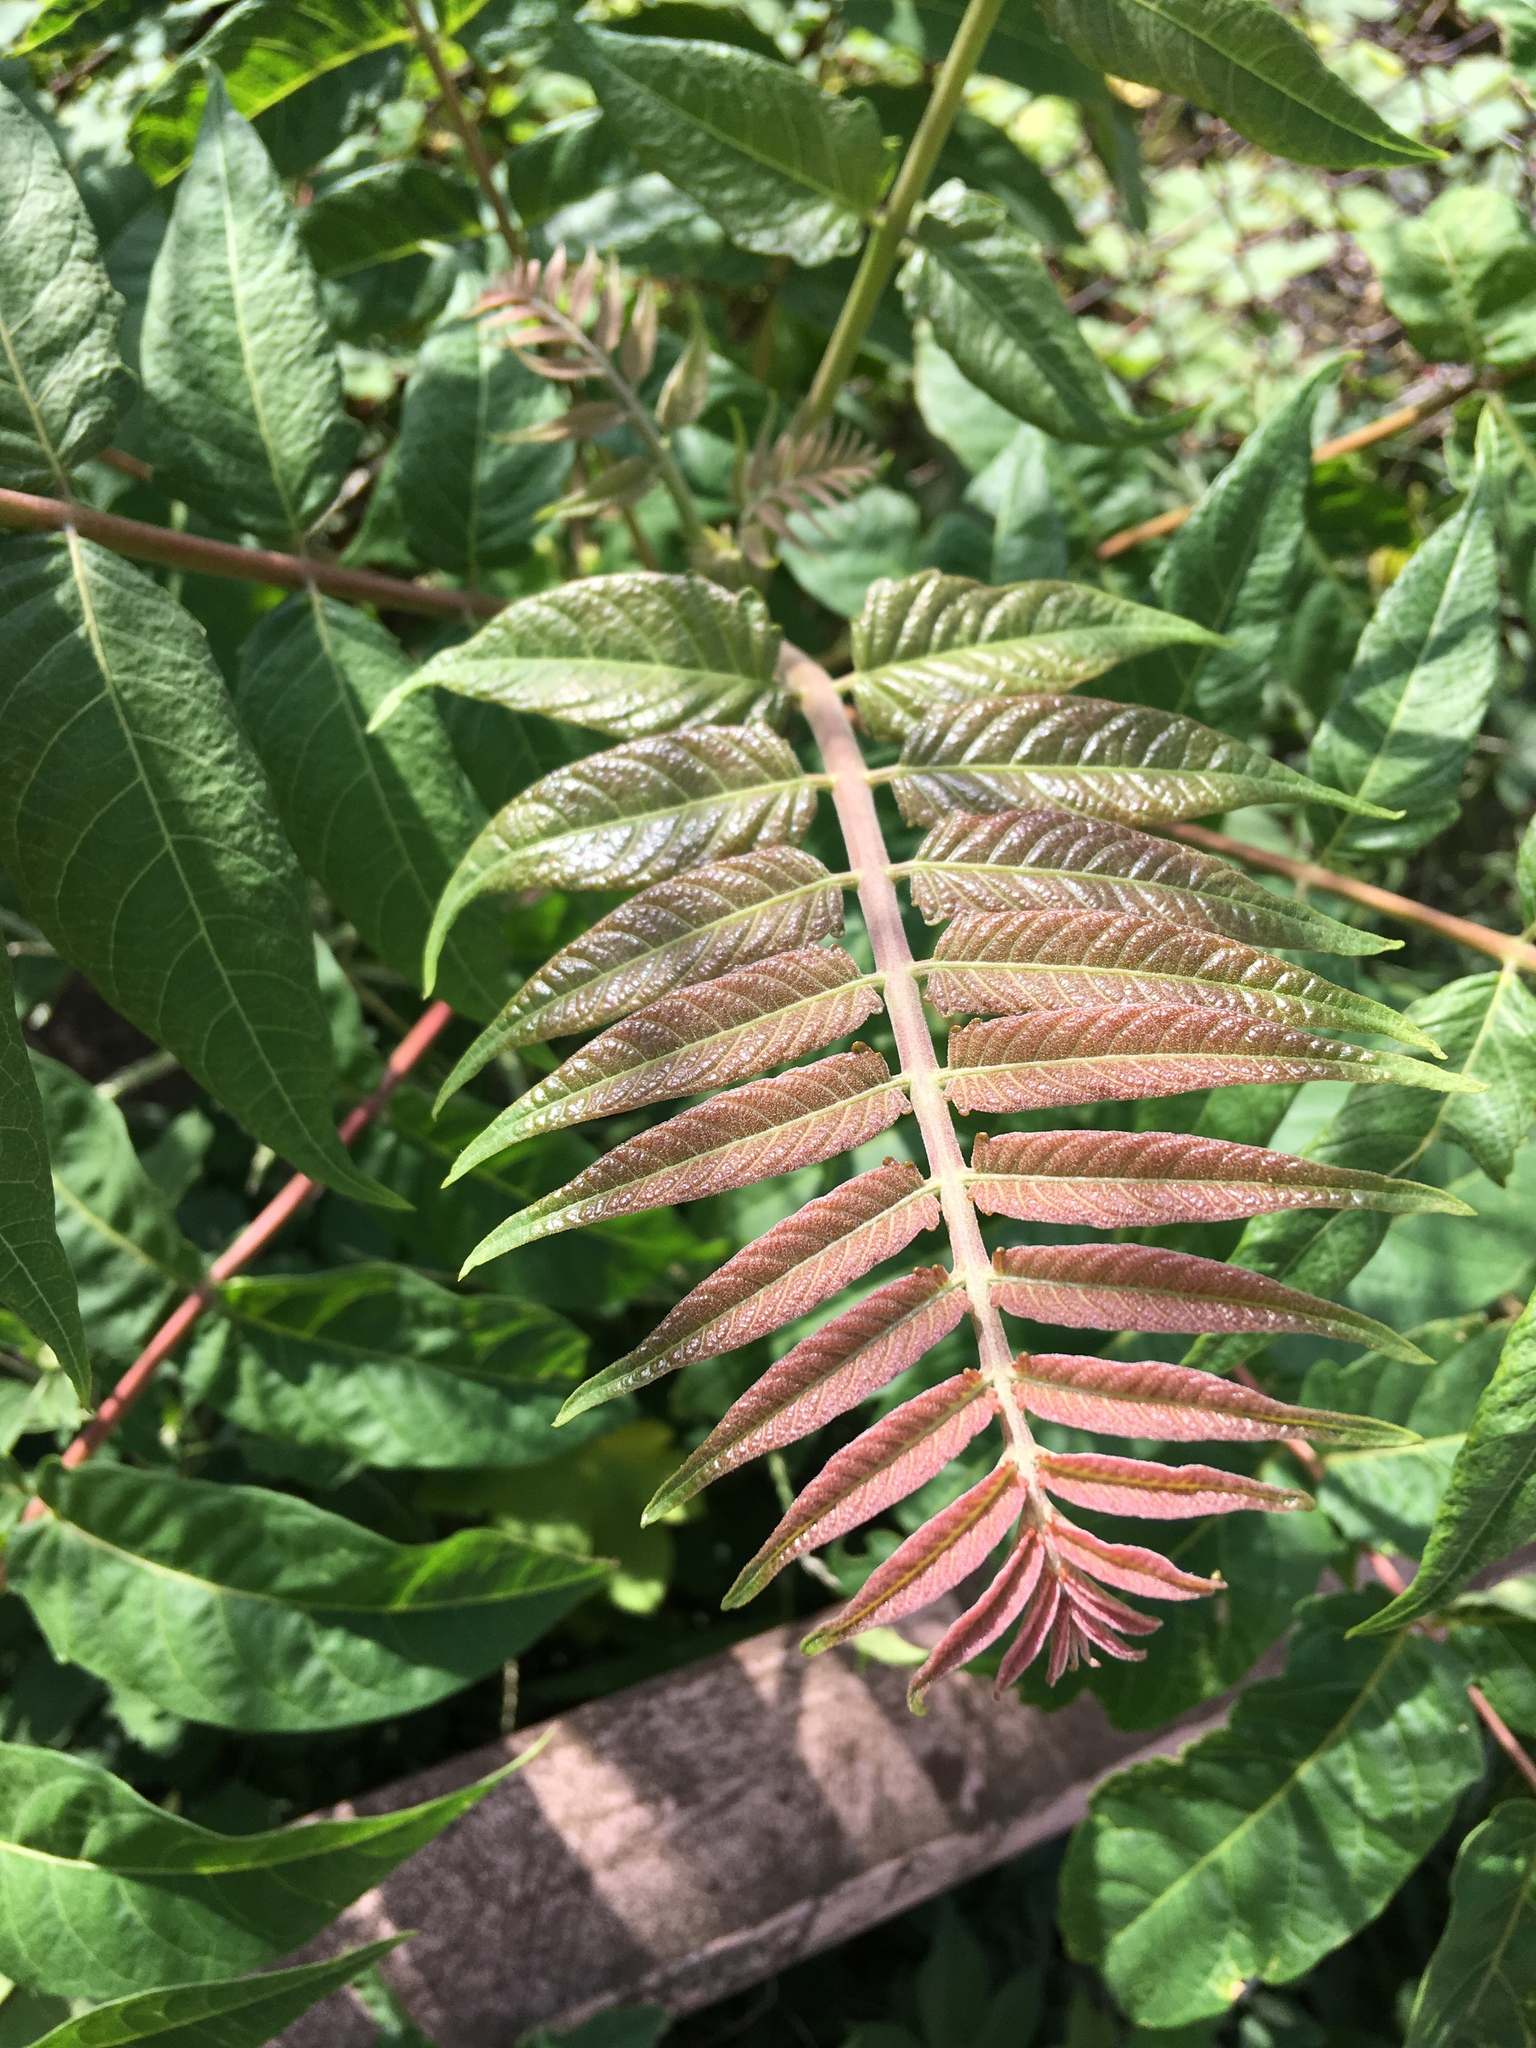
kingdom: Plantae
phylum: Tracheophyta
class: Magnoliopsida
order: Sapindales
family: Simaroubaceae
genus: Ailanthus
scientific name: Ailanthus altissima
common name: Tree-of-heaven
